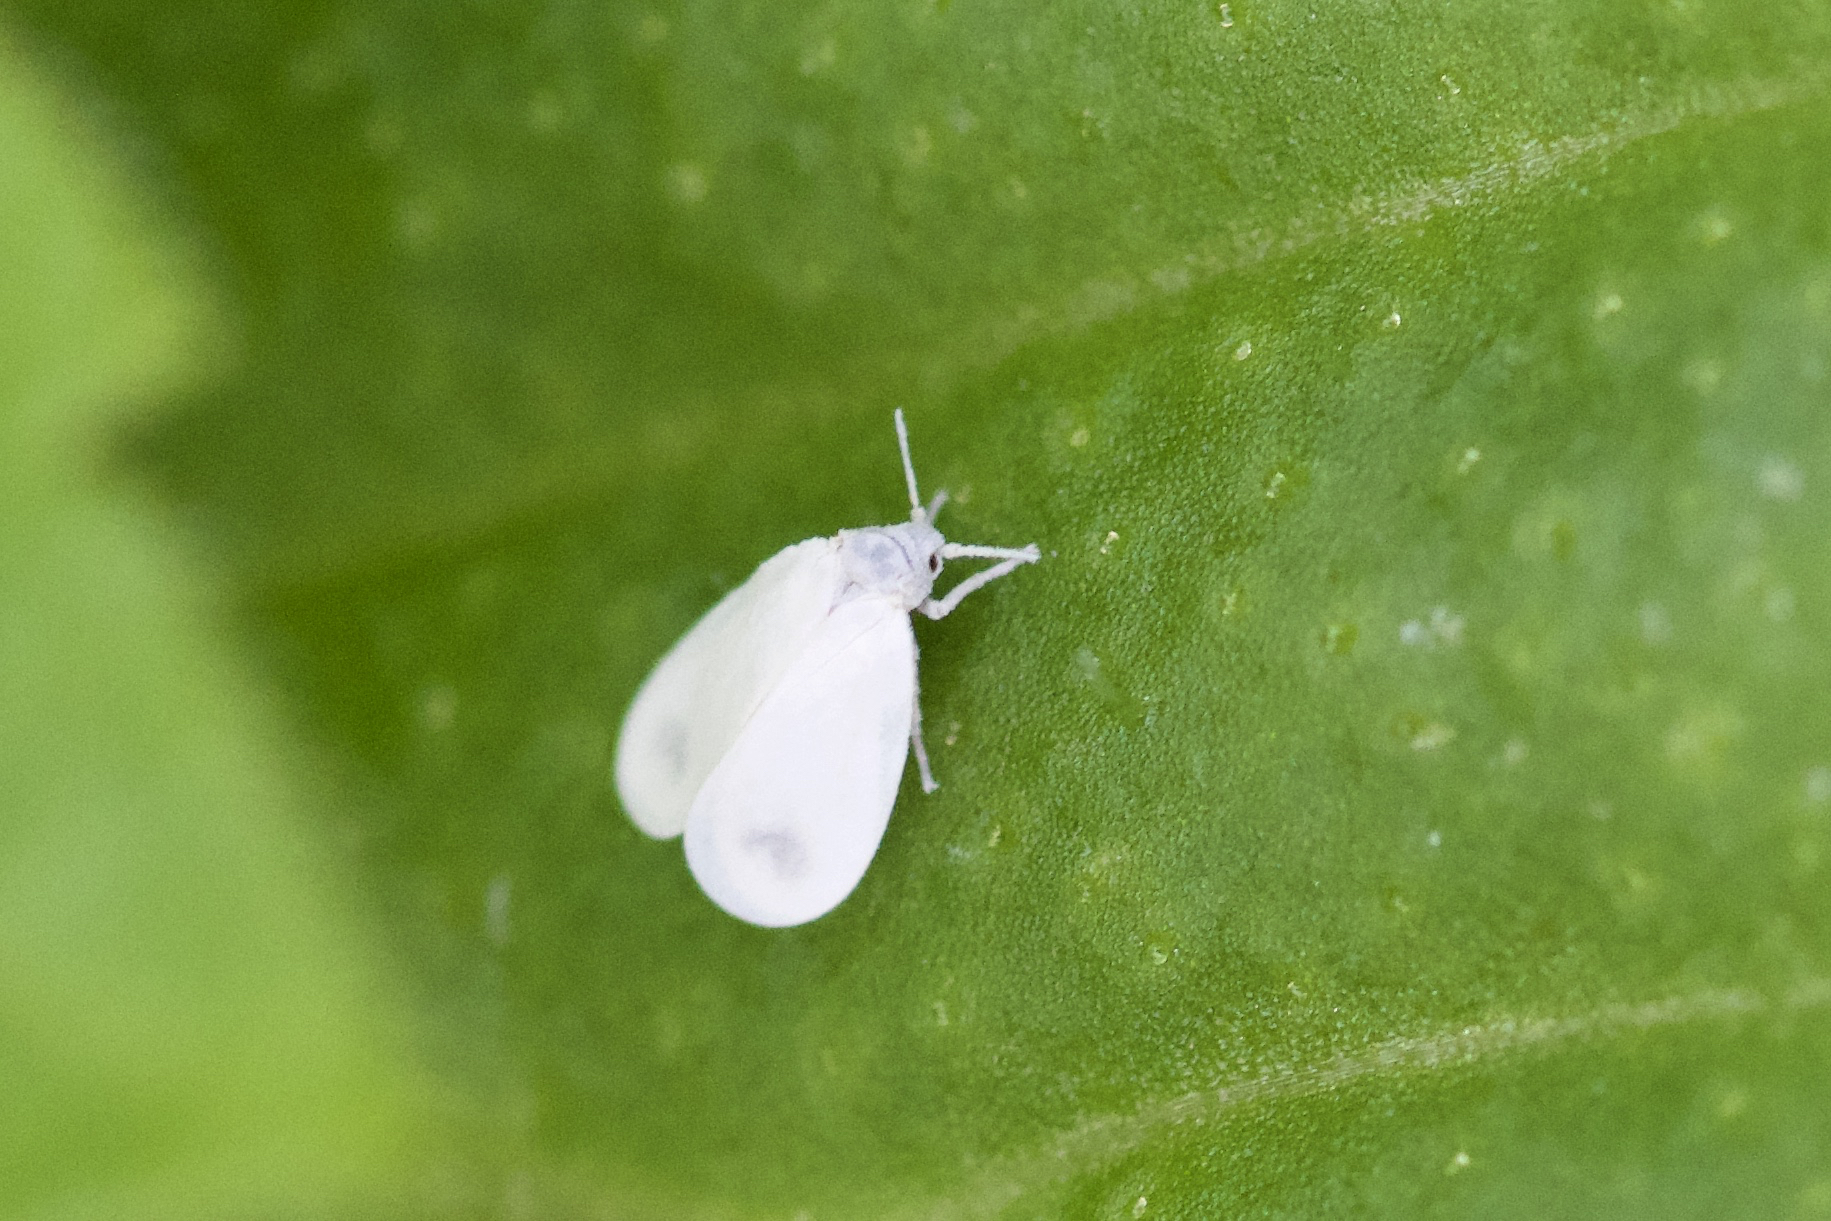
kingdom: Animalia
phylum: Arthropoda
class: Insecta
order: Hemiptera
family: Aleyrodidae
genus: Aleyrodes
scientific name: Aleyrodes lonicerae
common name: Whitefly
